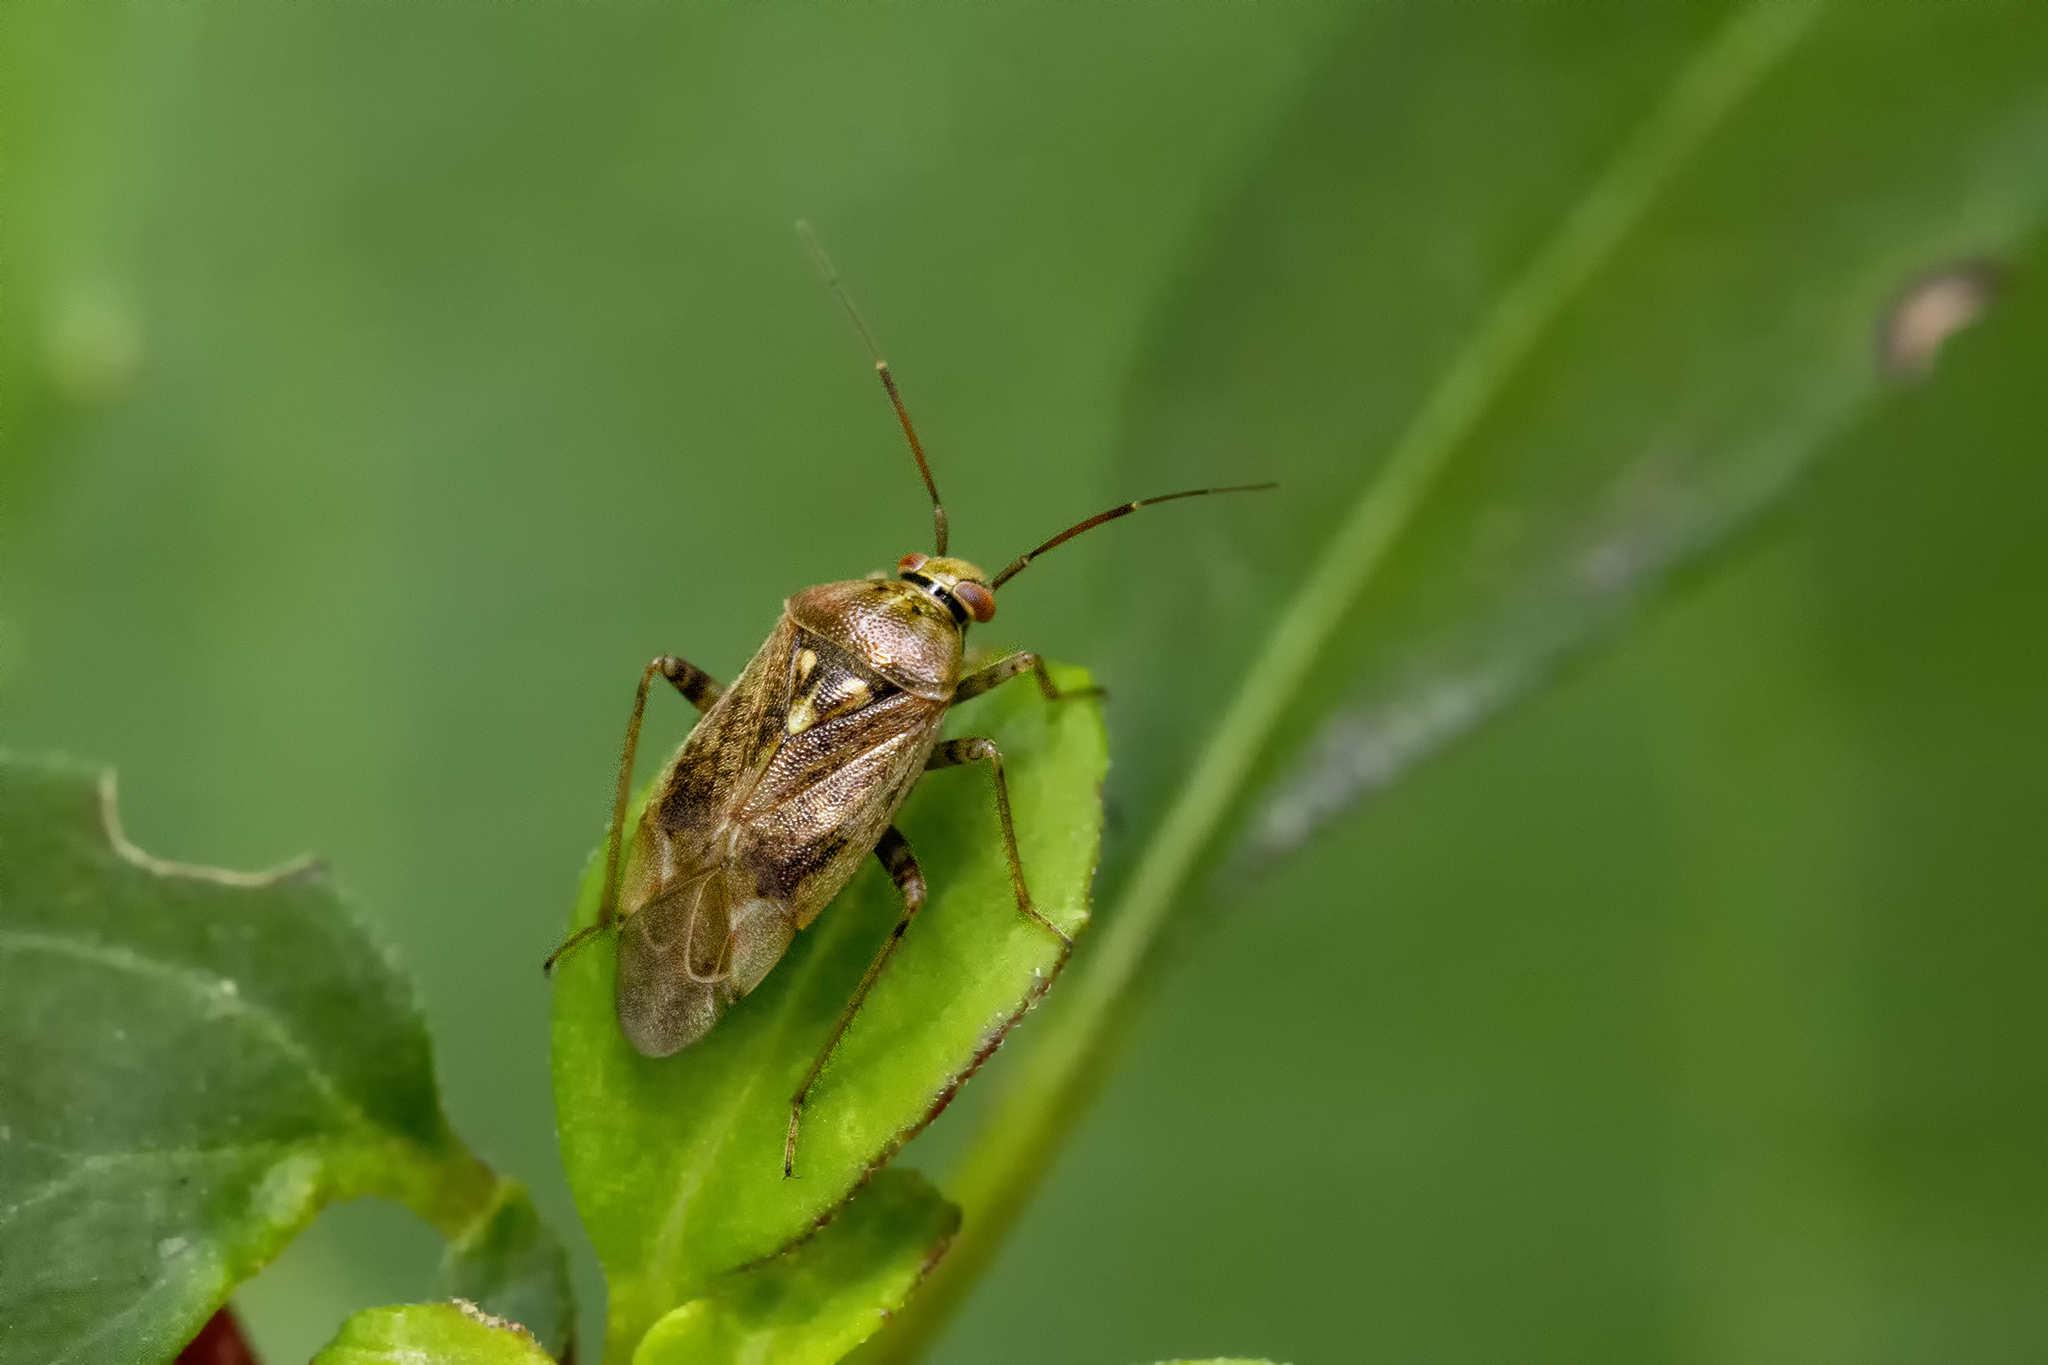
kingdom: Animalia
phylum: Arthropoda
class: Insecta
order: Hemiptera
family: Miridae
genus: Lygus
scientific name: Lygus rugulipennis
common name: European tarnished plant bug
